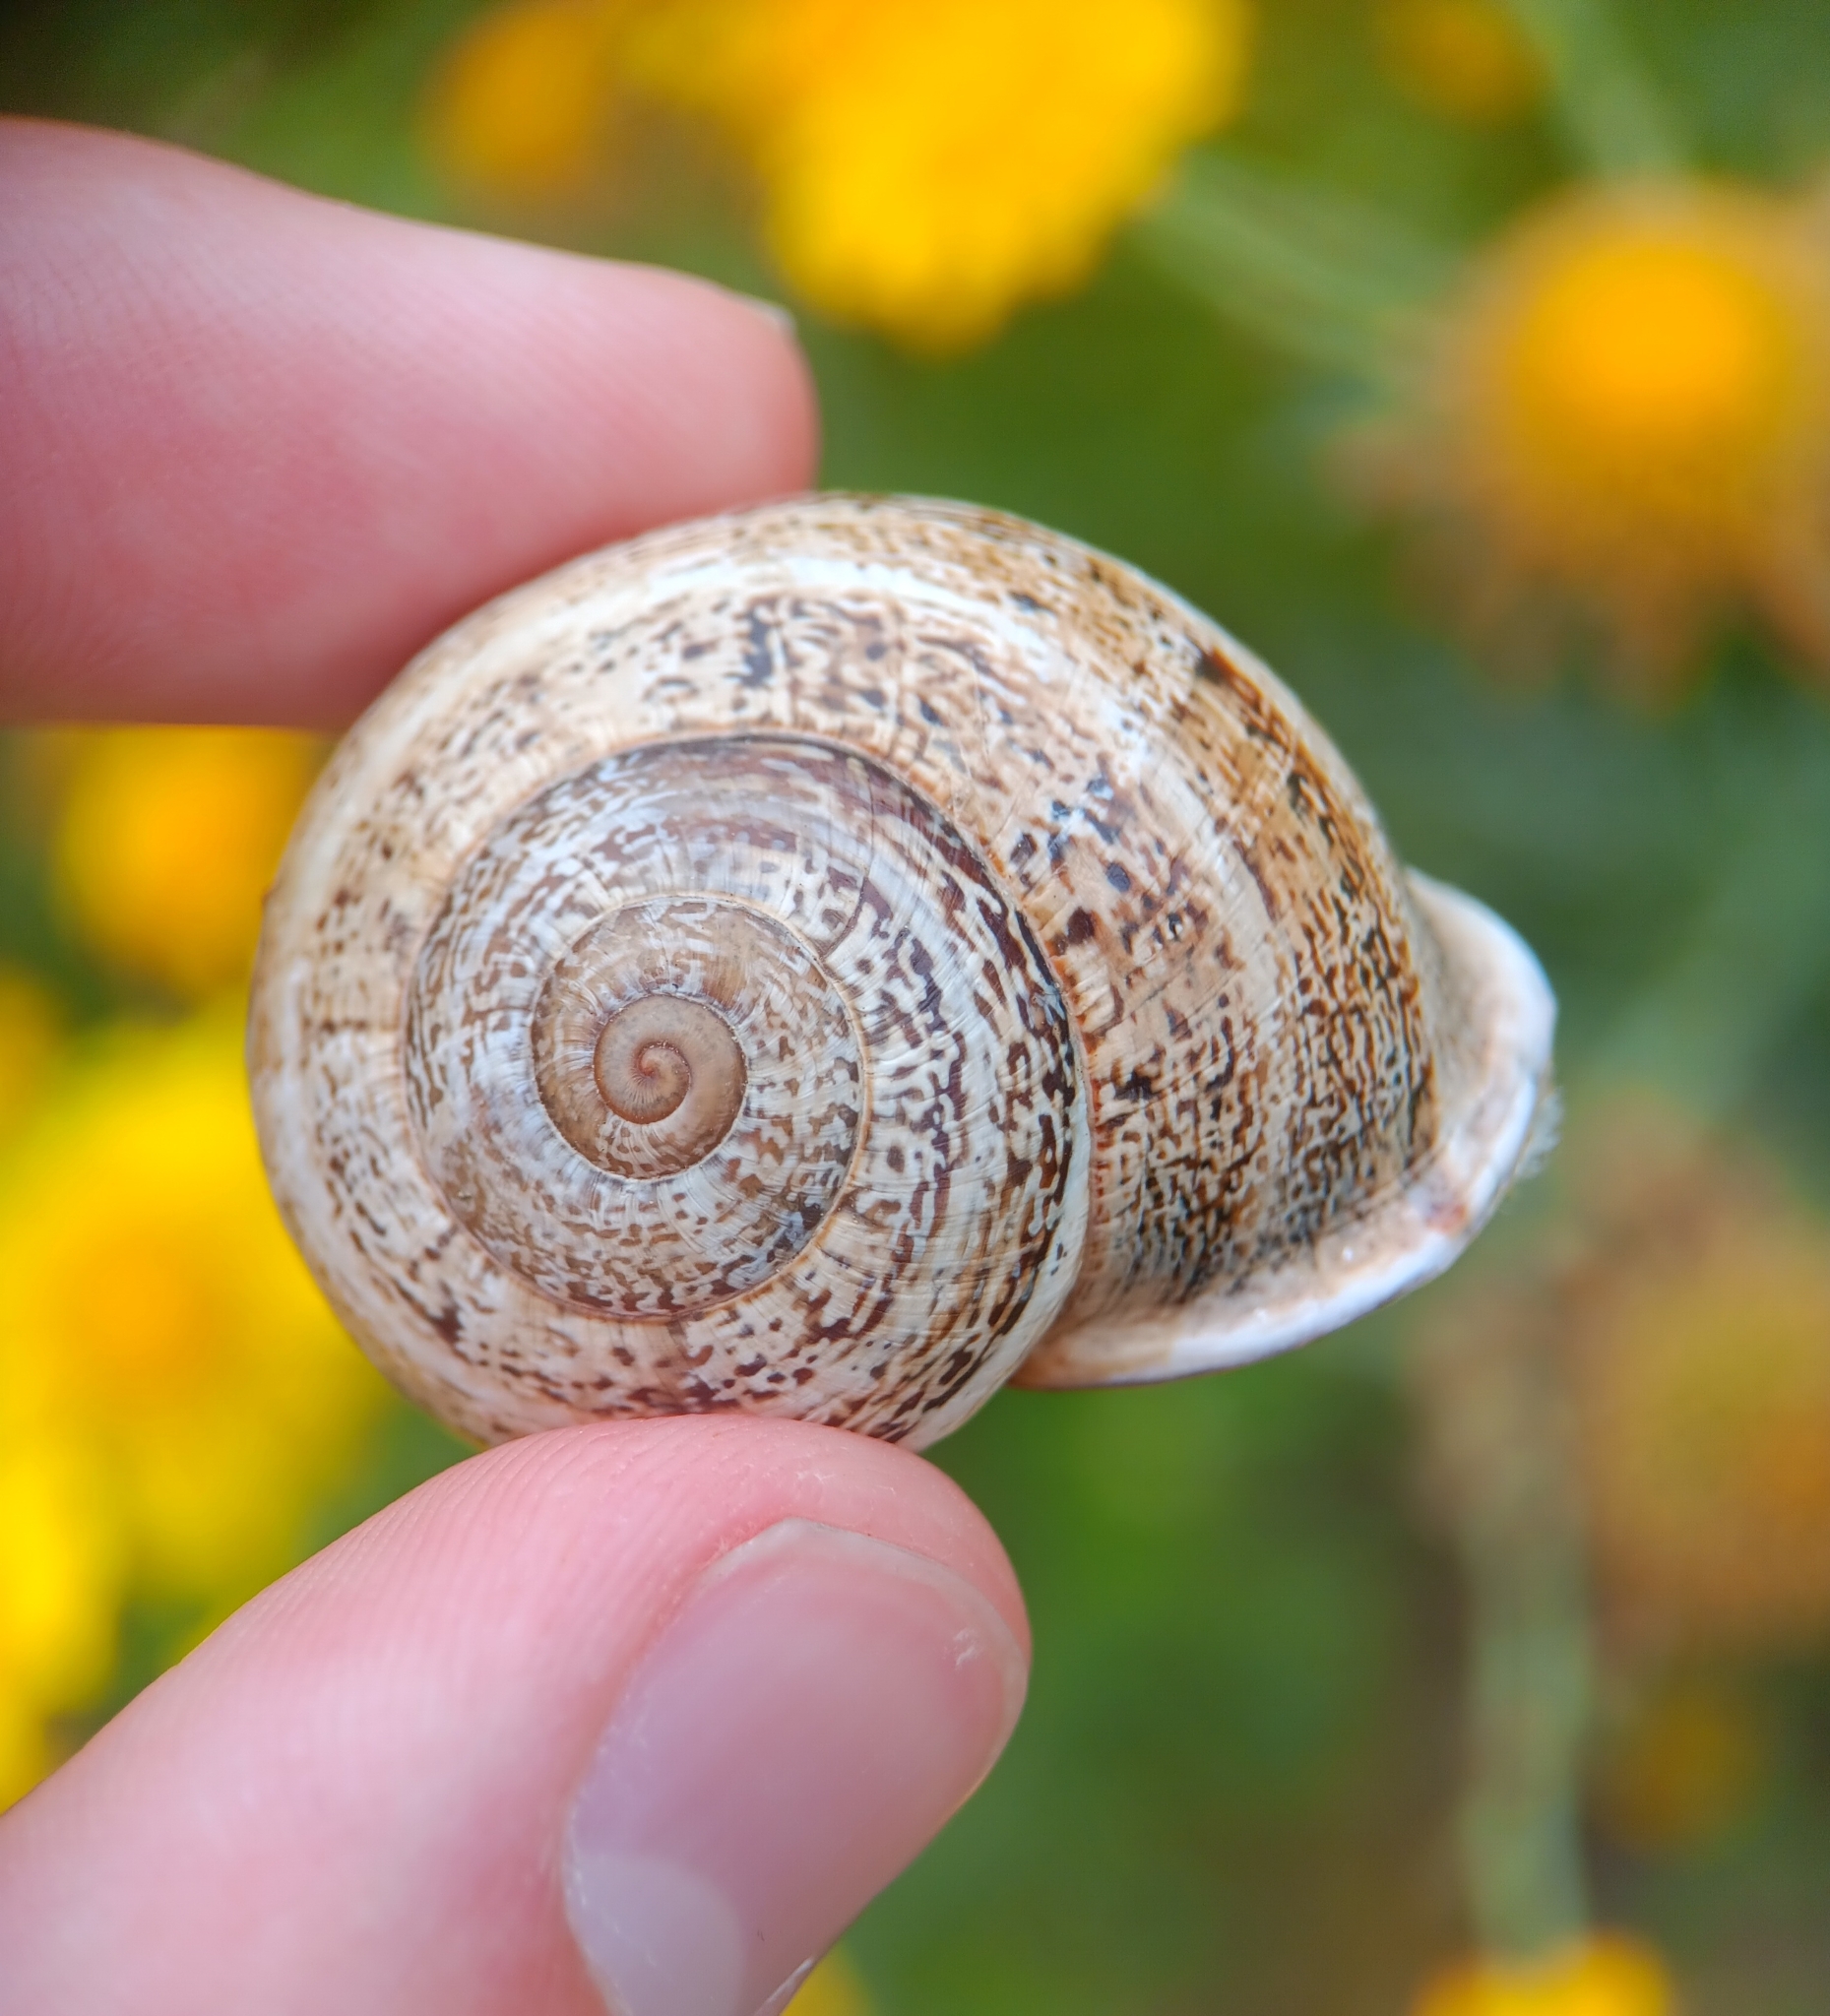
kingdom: Animalia
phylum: Mollusca
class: Gastropoda
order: Stylommatophora
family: Helicidae
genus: Otala
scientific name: Otala lactea
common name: Milk snail
